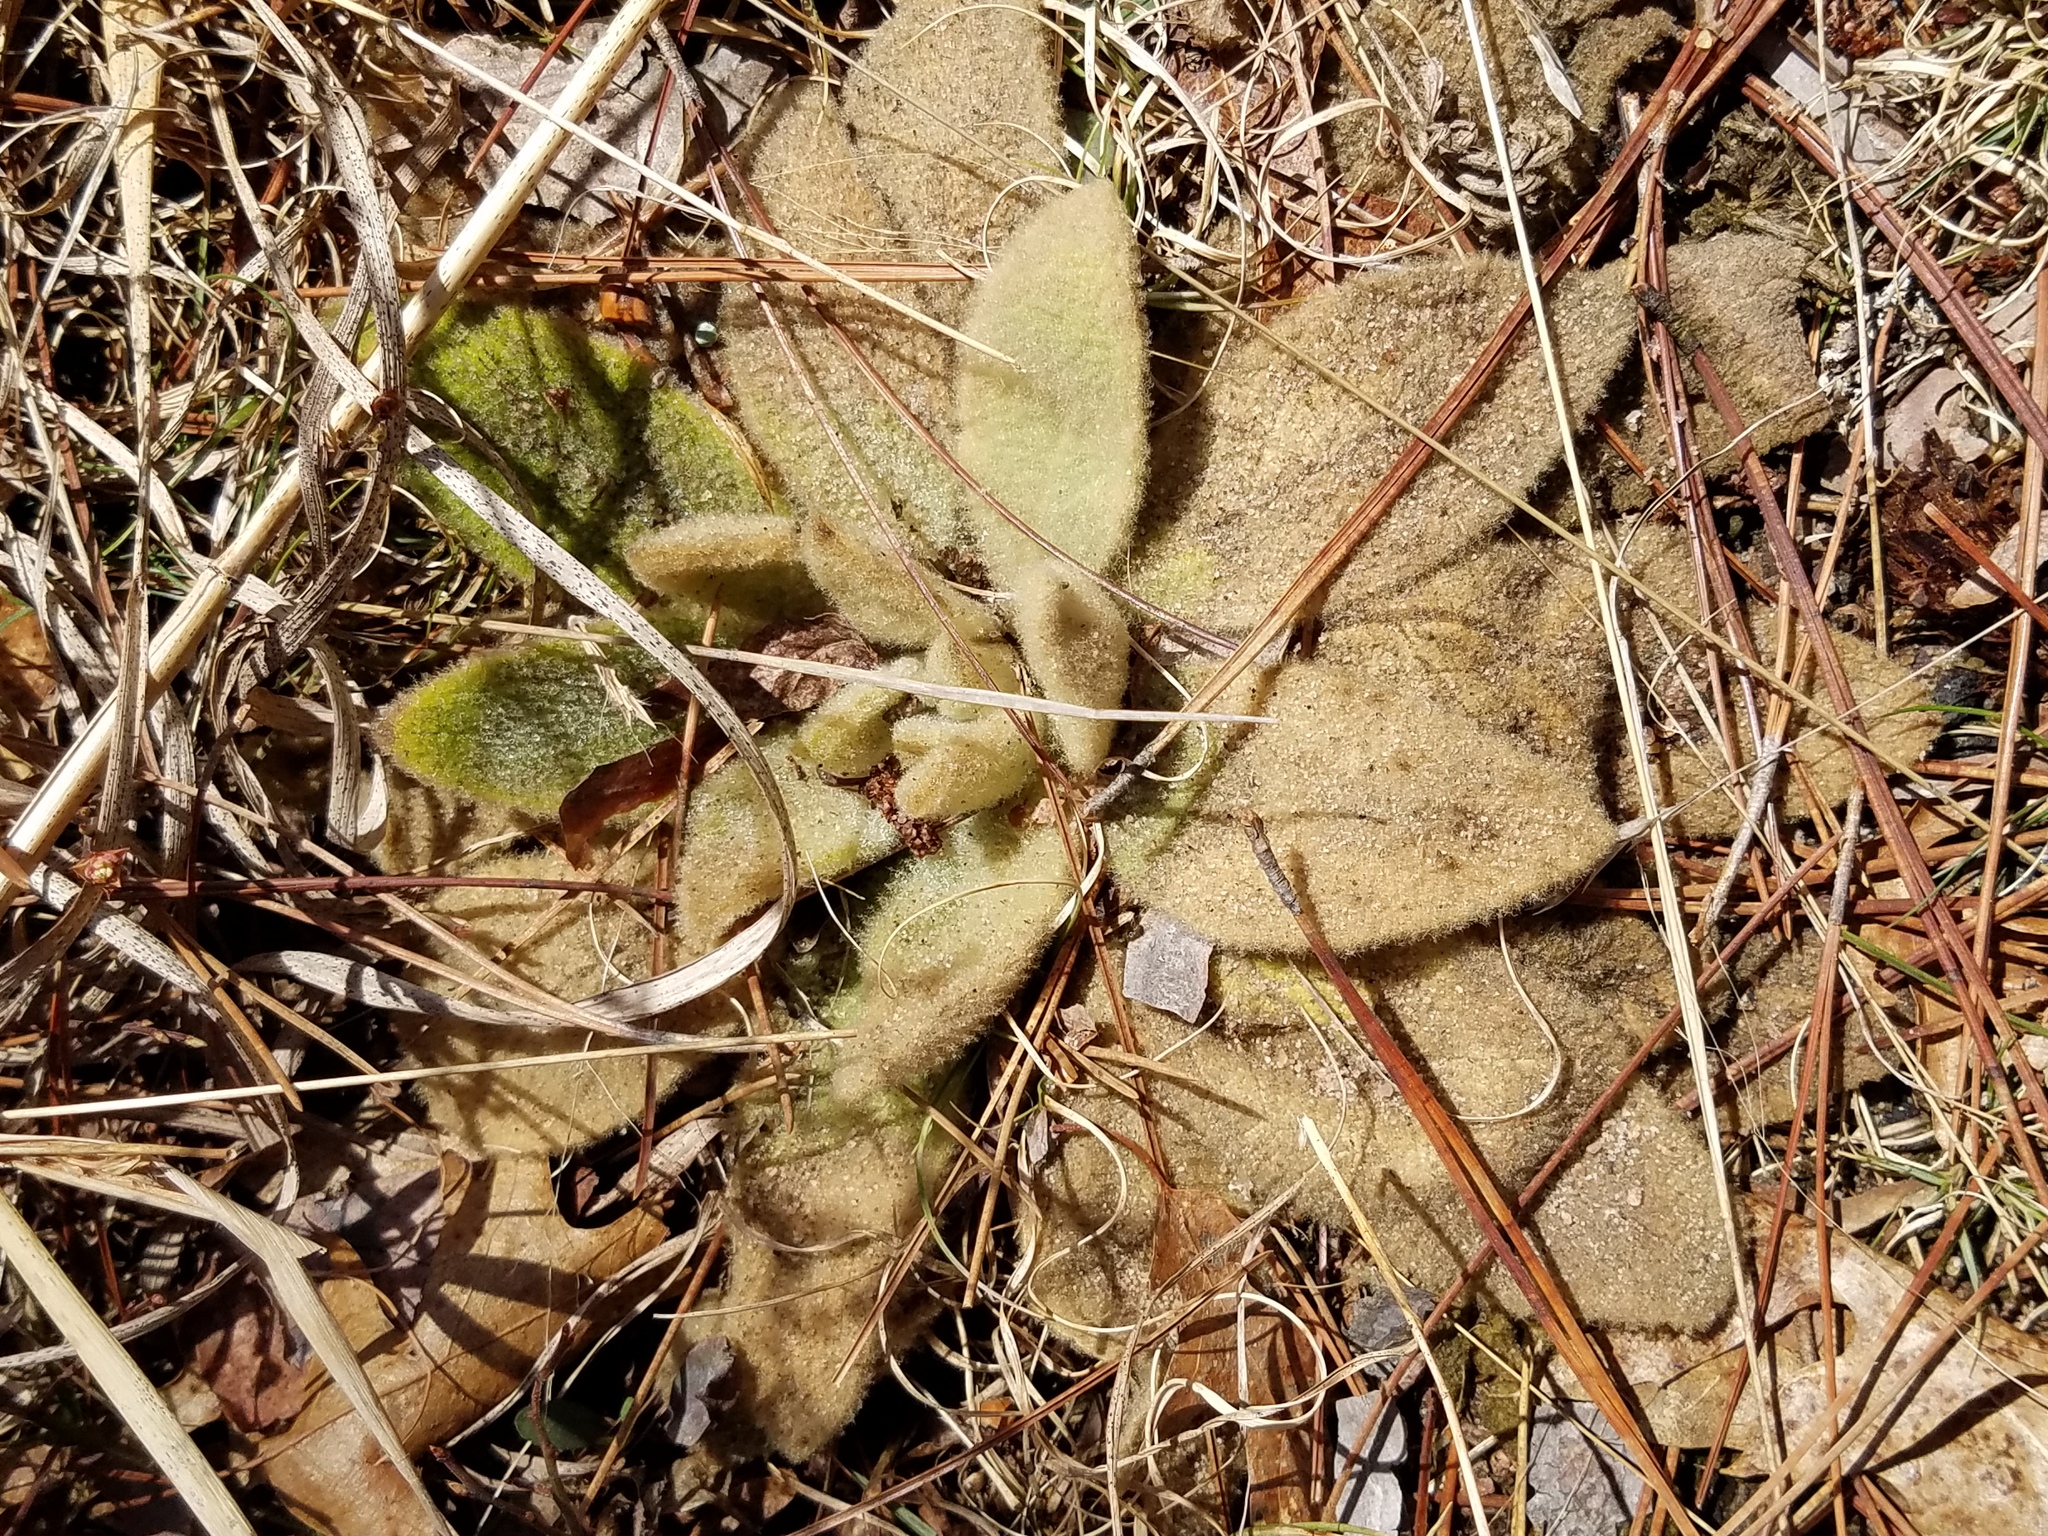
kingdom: Plantae
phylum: Tracheophyta
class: Magnoliopsida
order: Lamiales
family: Scrophulariaceae
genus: Verbascum
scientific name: Verbascum thapsus
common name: Common mullein
